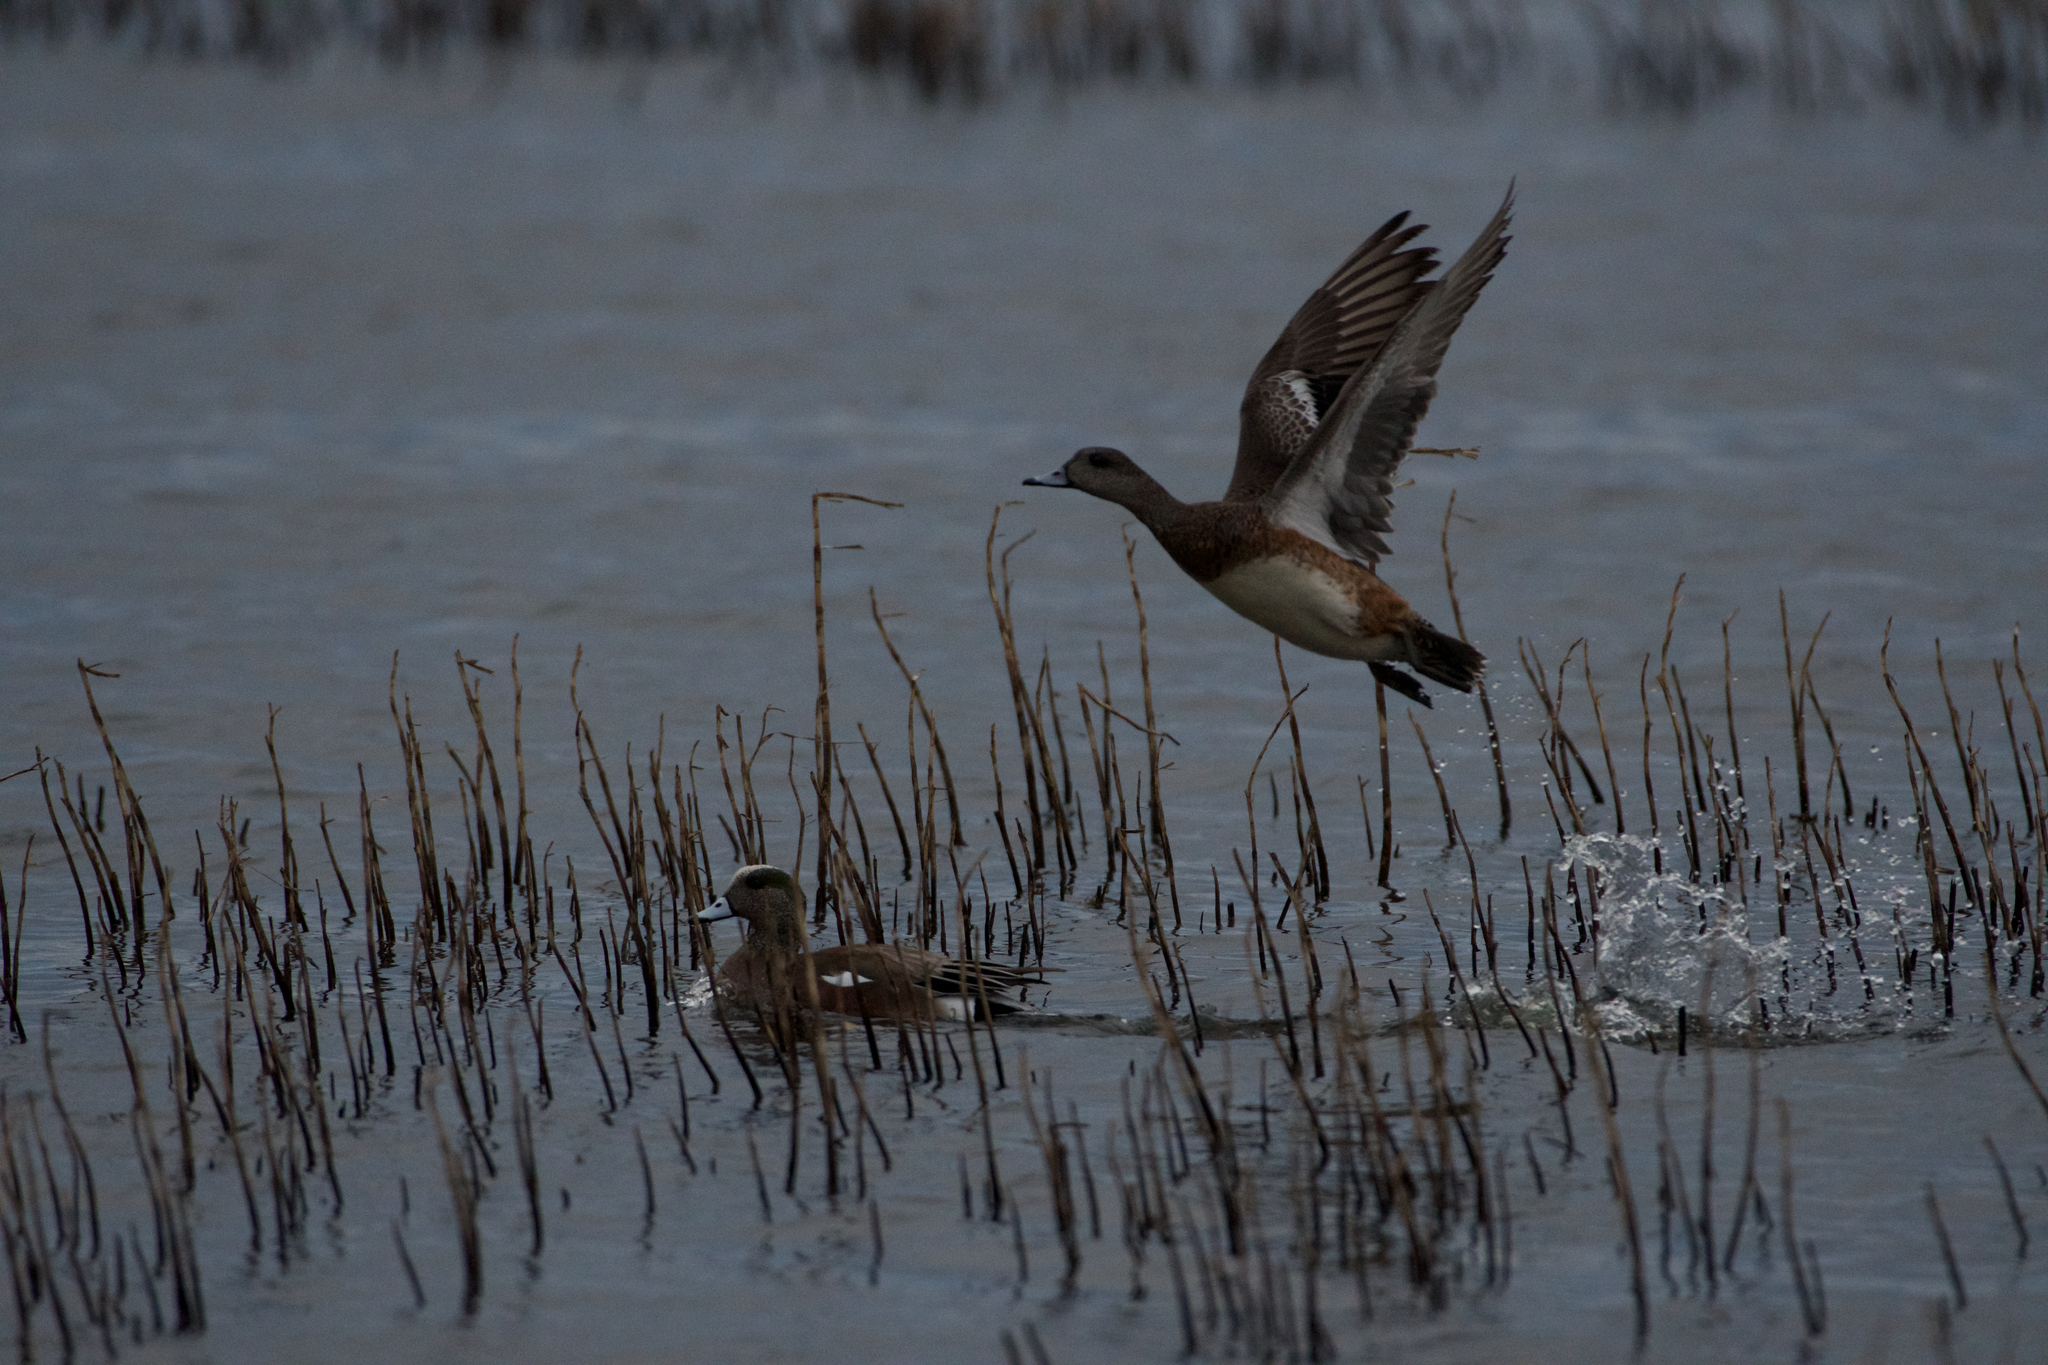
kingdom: Animalia
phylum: Chordata
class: Aves
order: Anseriformes
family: Anatidae
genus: Mareca
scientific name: Mareca americana
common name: American wigeon
